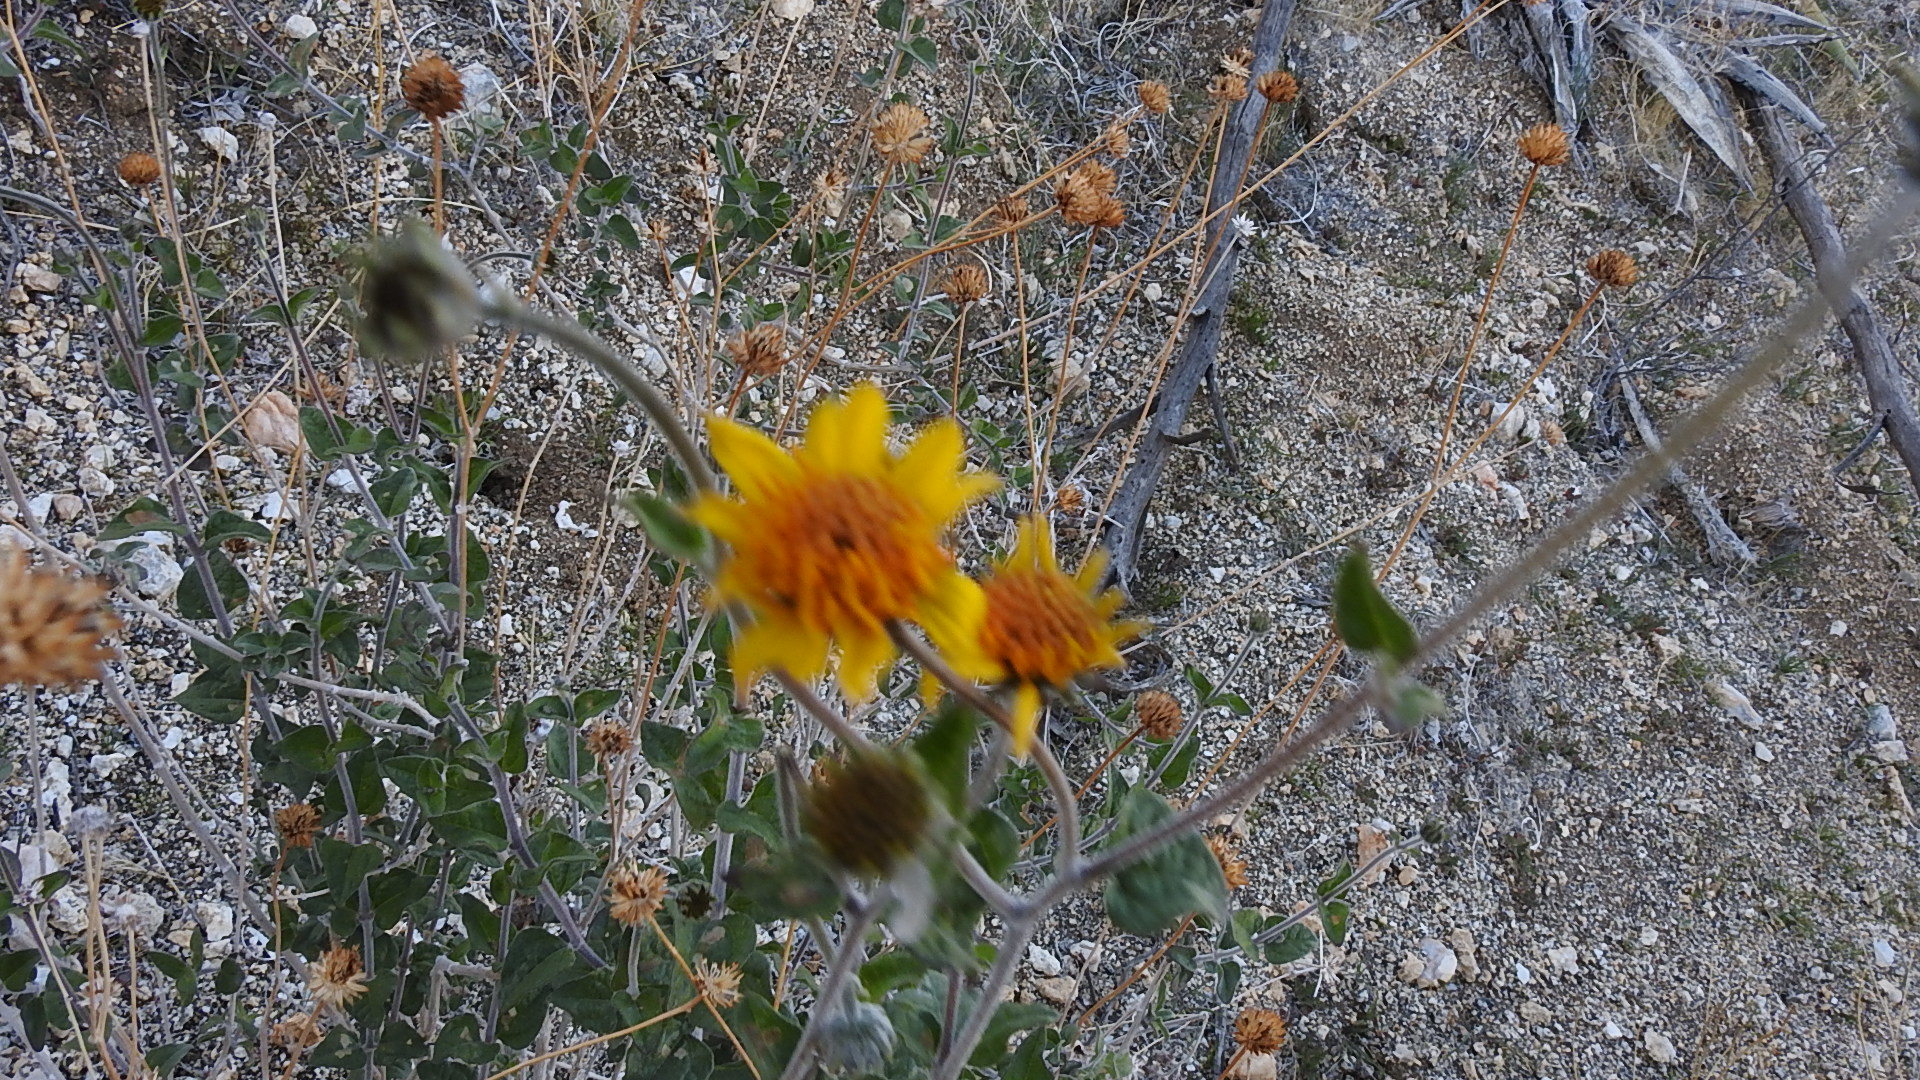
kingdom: Plantae
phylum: Tracheophyta
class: Magnoliopsida
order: Asterales
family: Asteraceae
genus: Bahiopsis
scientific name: Bahiopsis parishii
